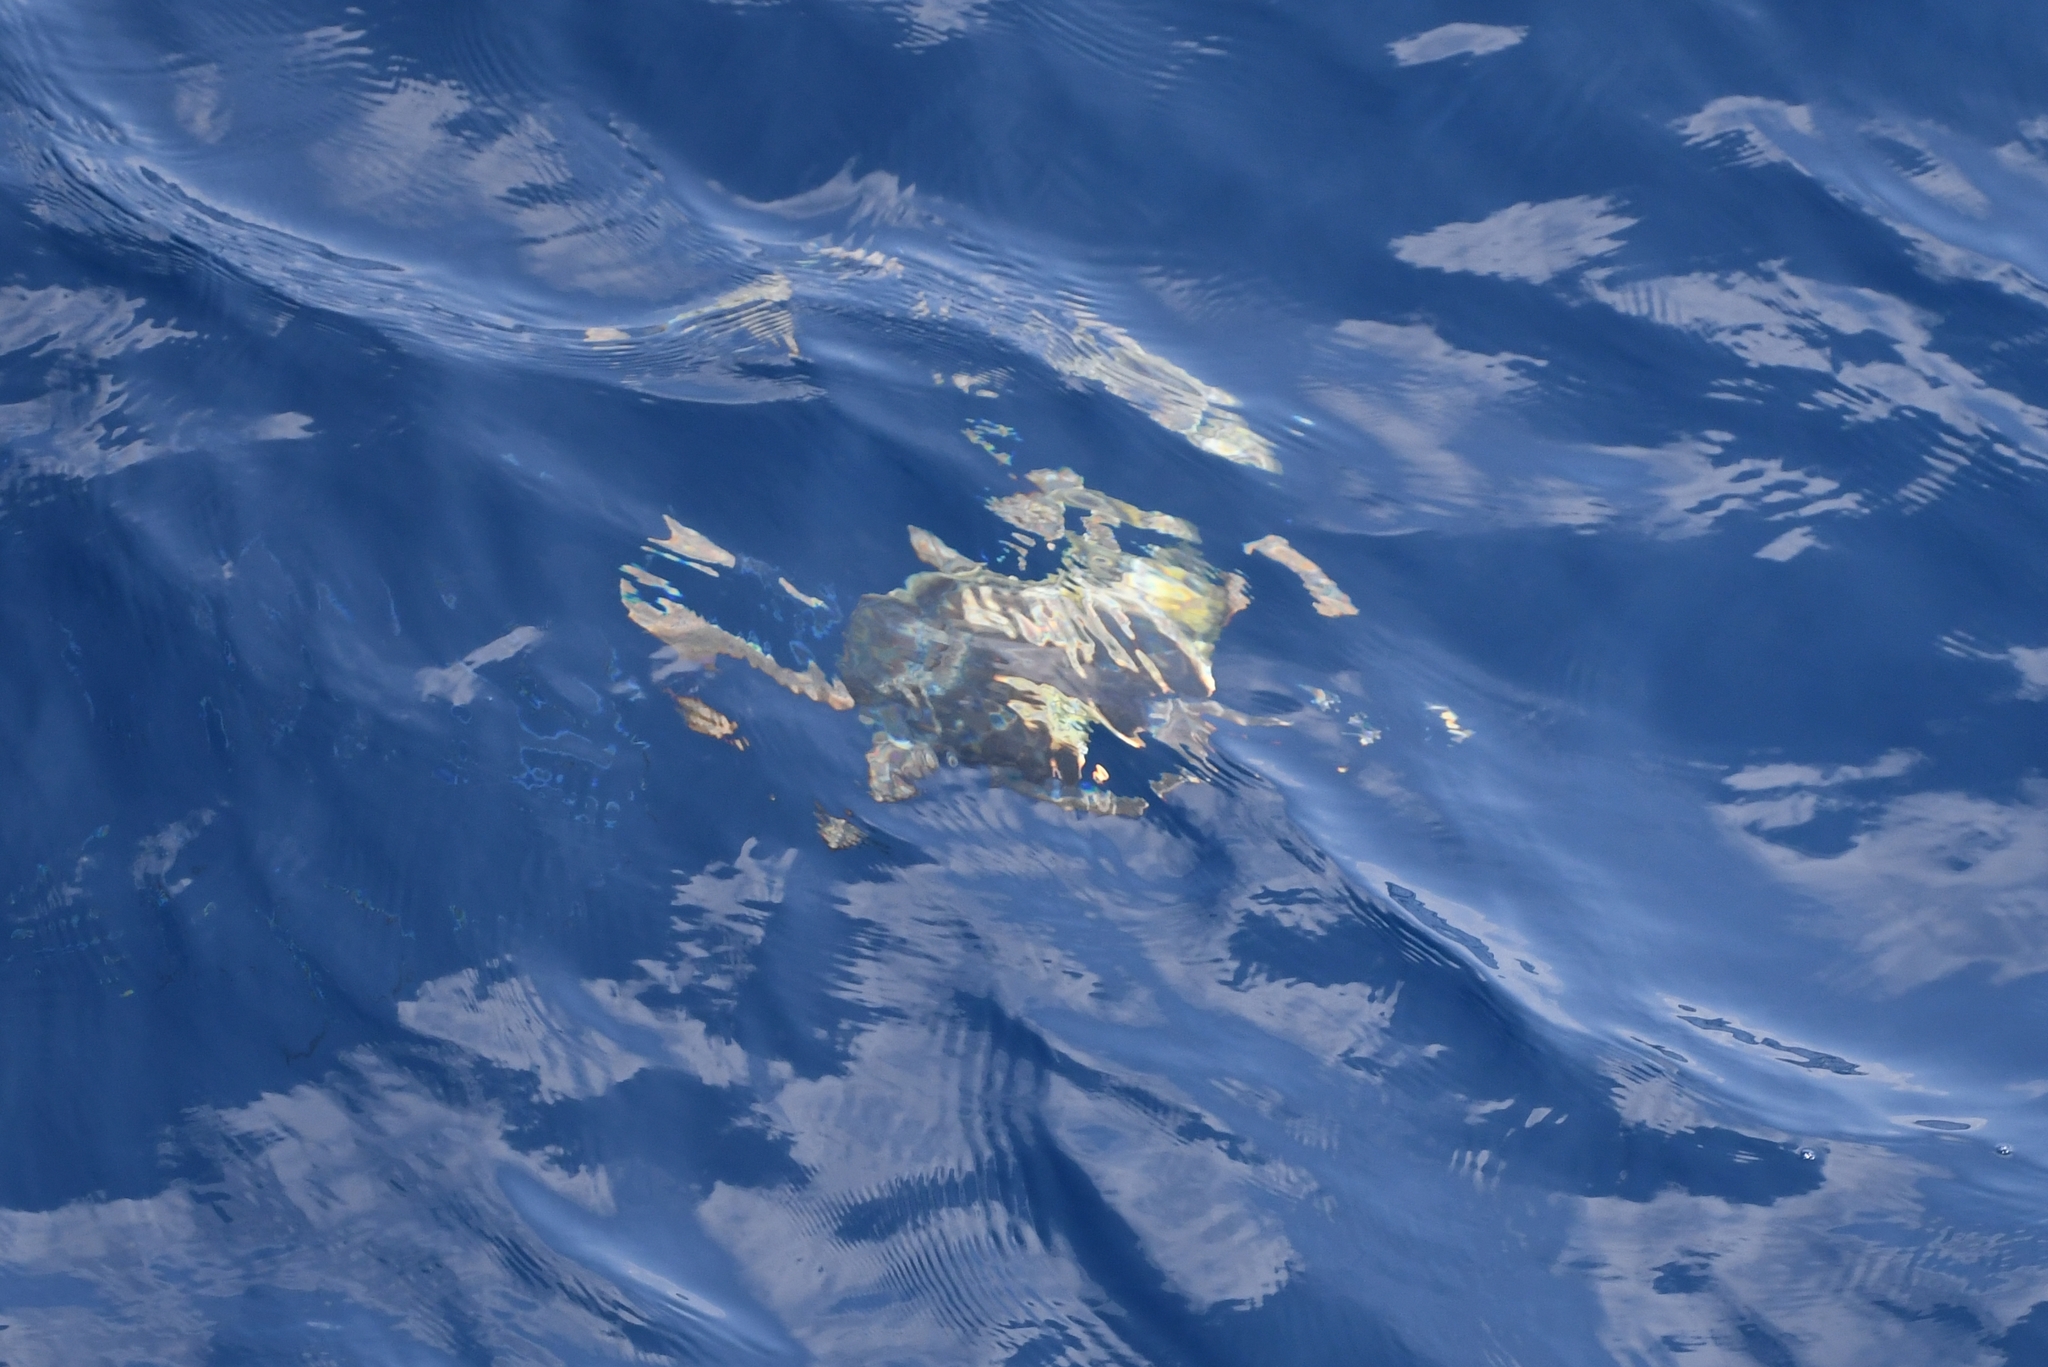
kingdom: Animalia
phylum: Chordata
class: Testudines
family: Cheloniidae
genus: Caretta
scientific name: Caretta caretta
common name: Loggerhead sea turtle
